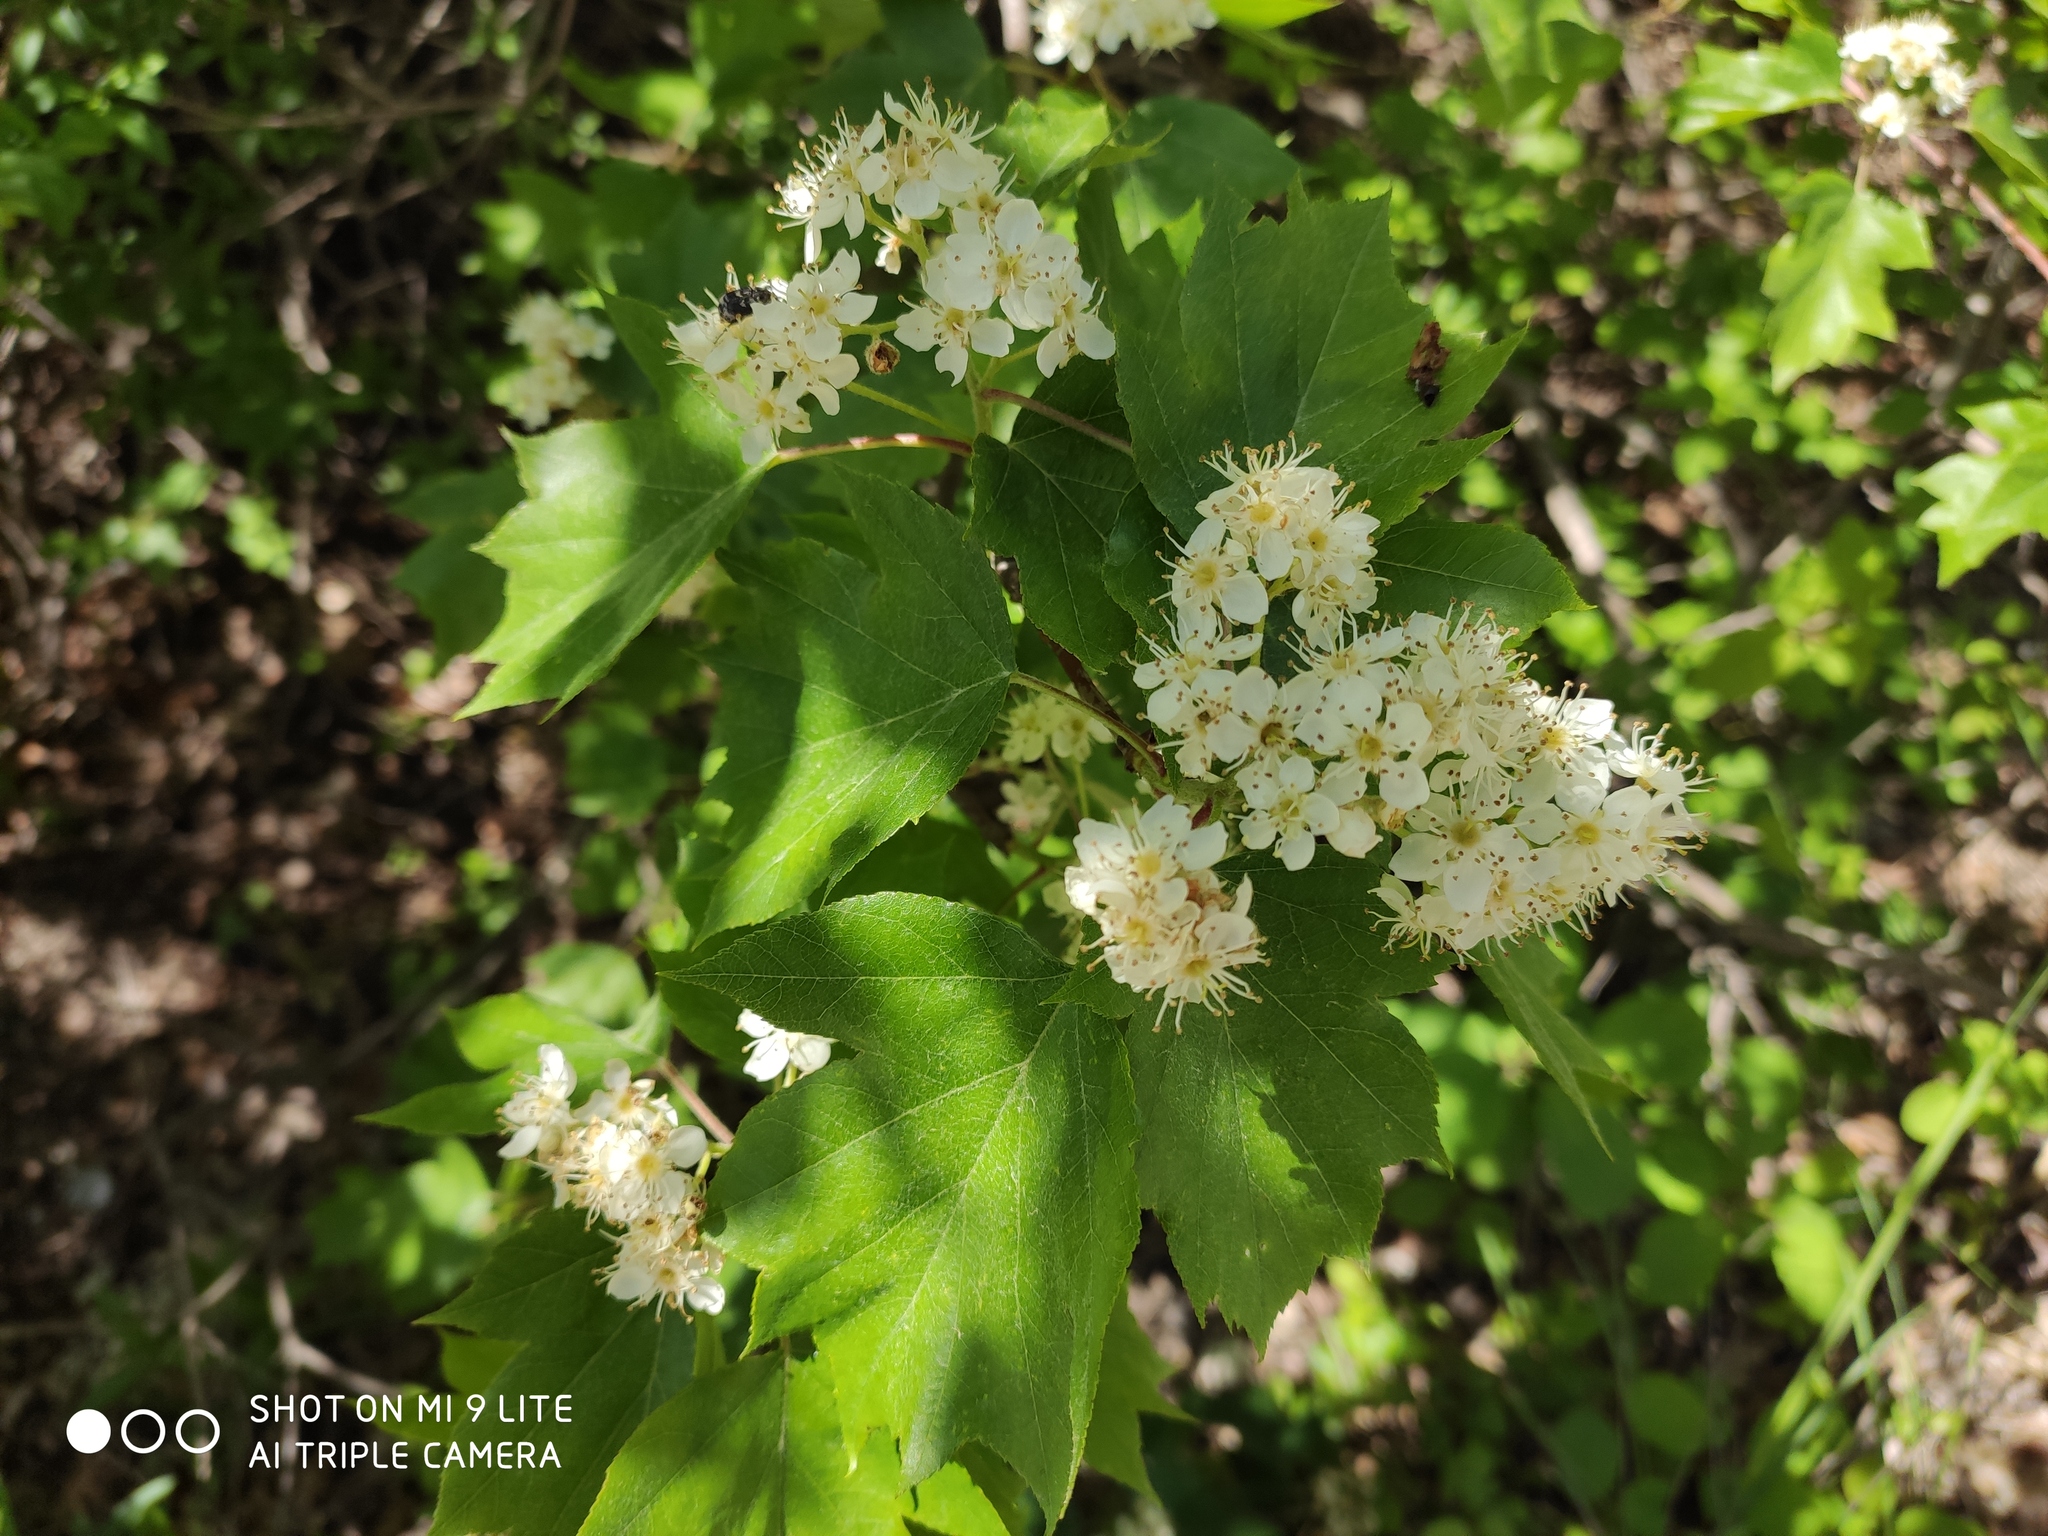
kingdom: Plantae
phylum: Tracheophyta
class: Magnoliopsida
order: Rosales
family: Rosaceae
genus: Torminalis
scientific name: Torminalis glaberrima
